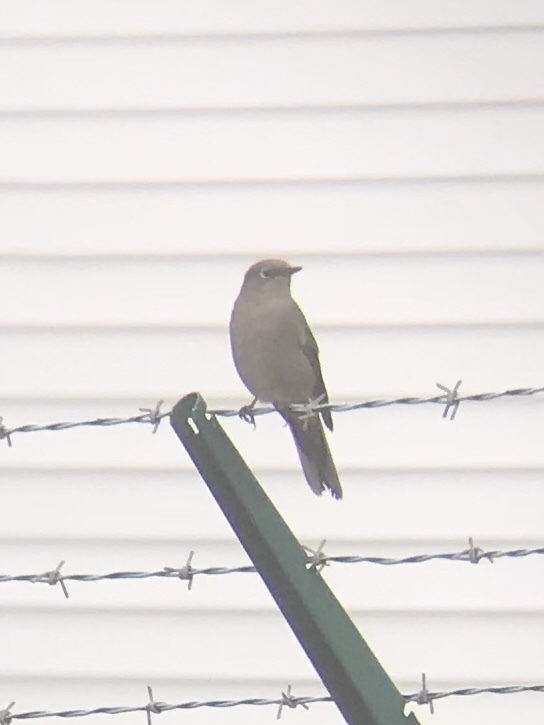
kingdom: Animalia
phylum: Chordata
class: Aves
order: Passeriformes
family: Turdidae
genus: Myadestes
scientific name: Myadestes townsendi
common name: Townsend's solitaire
